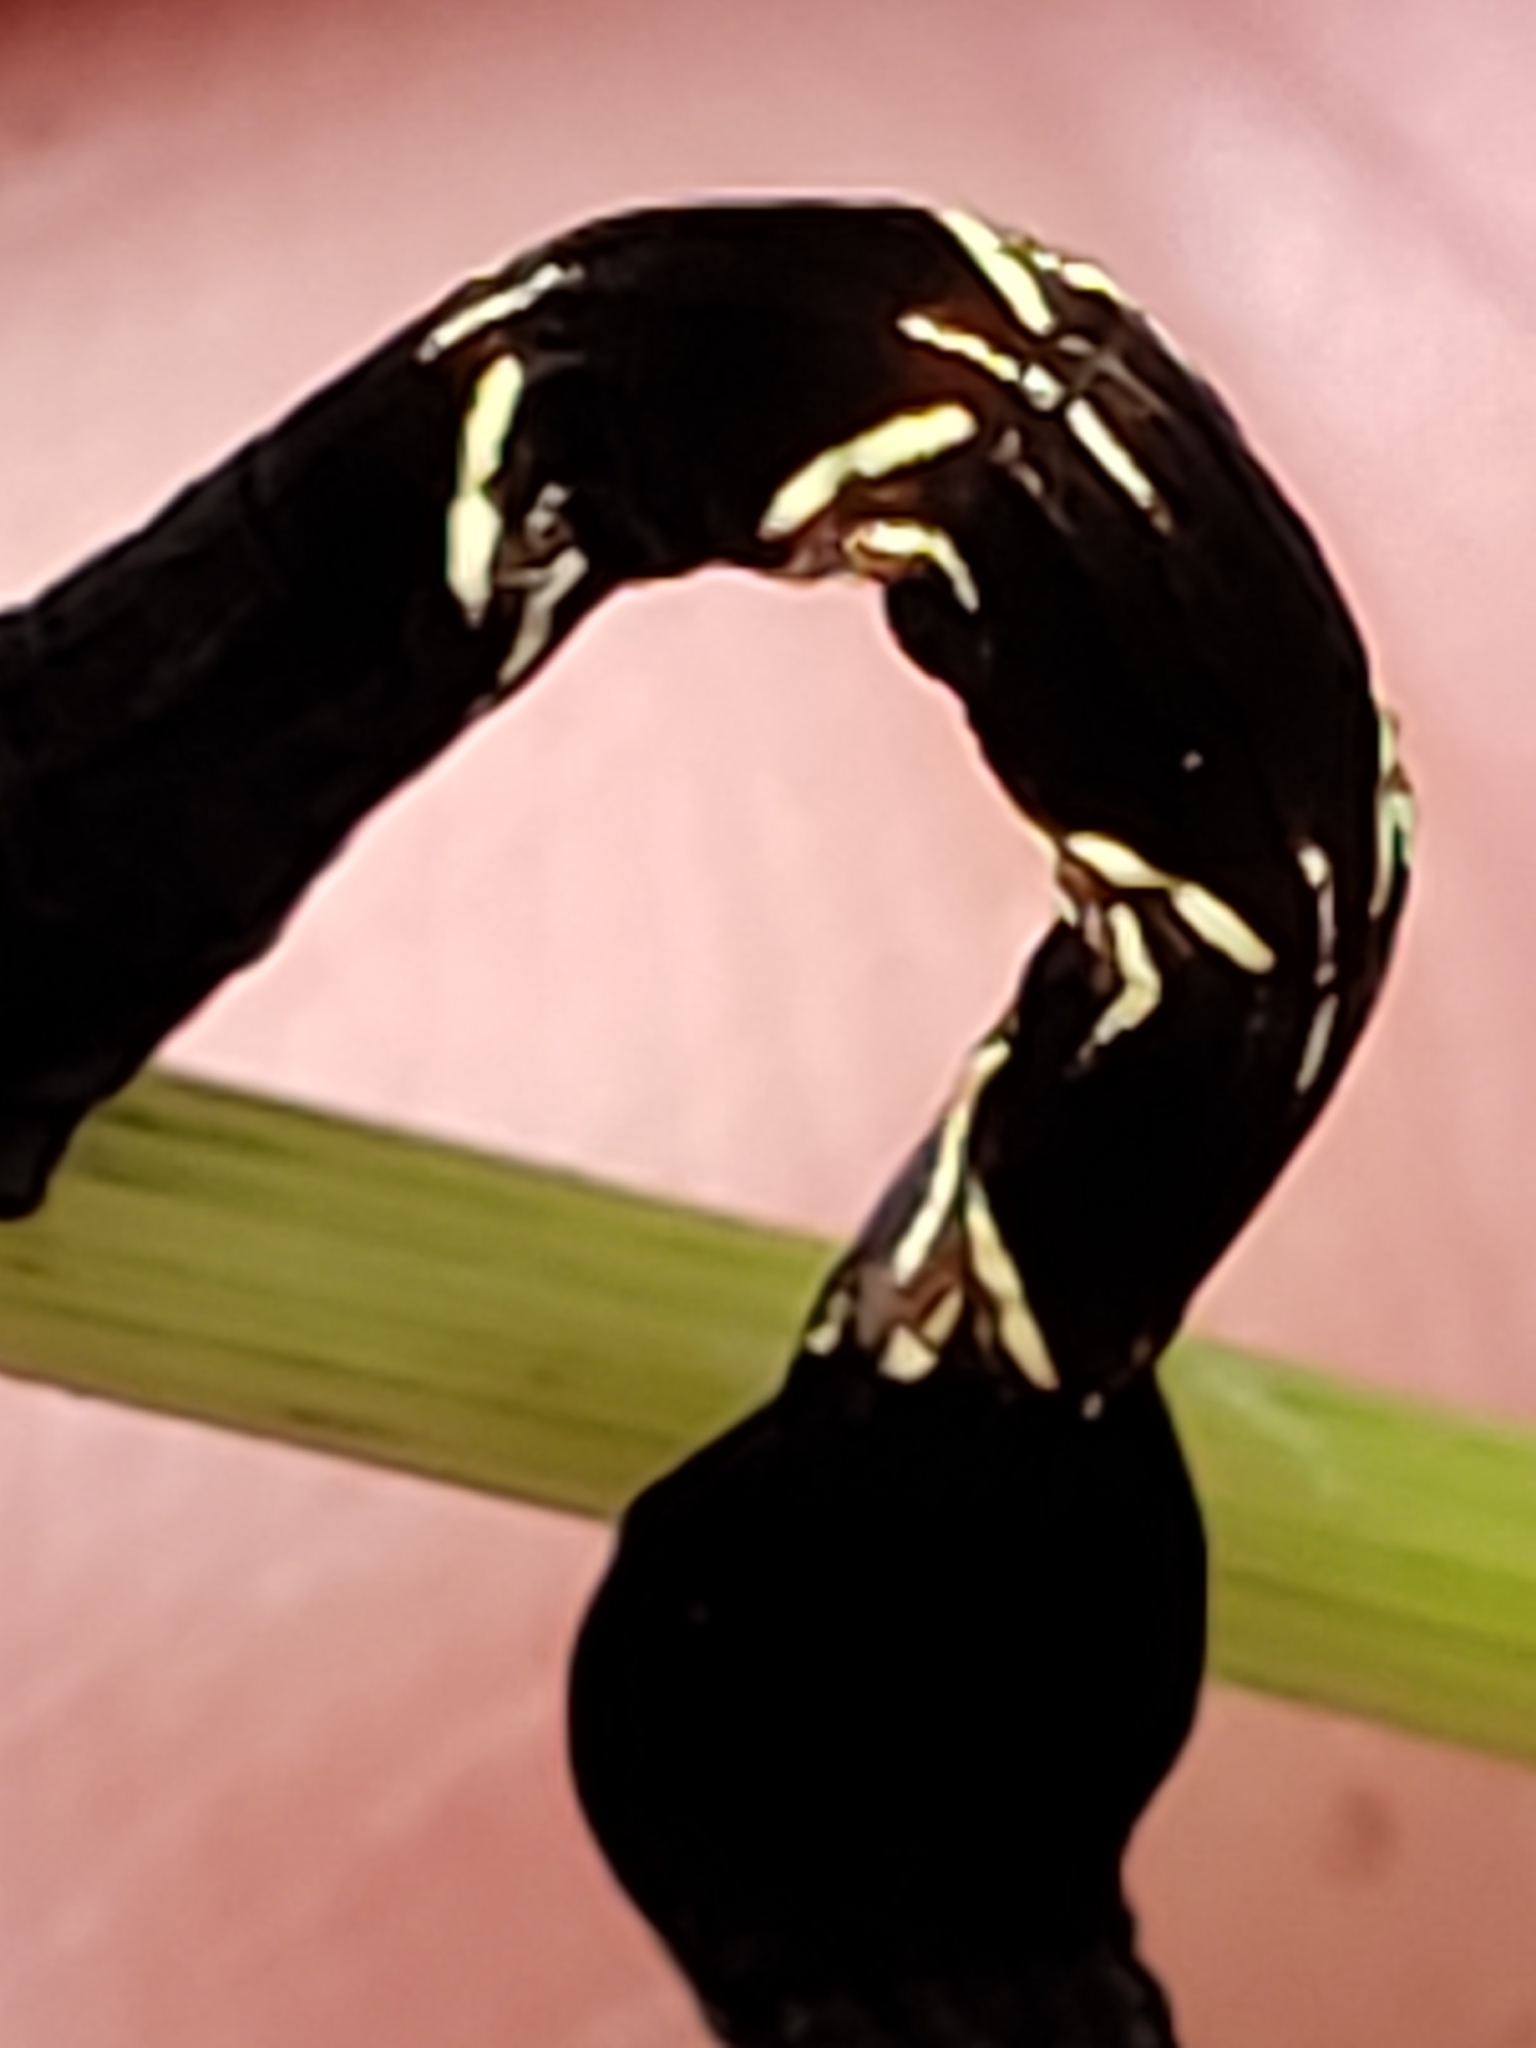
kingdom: Animalia
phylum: Arthropoda
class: Insecta
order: Lepidoptera
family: Geometridae
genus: Timandra
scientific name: Timandra amaturaria
